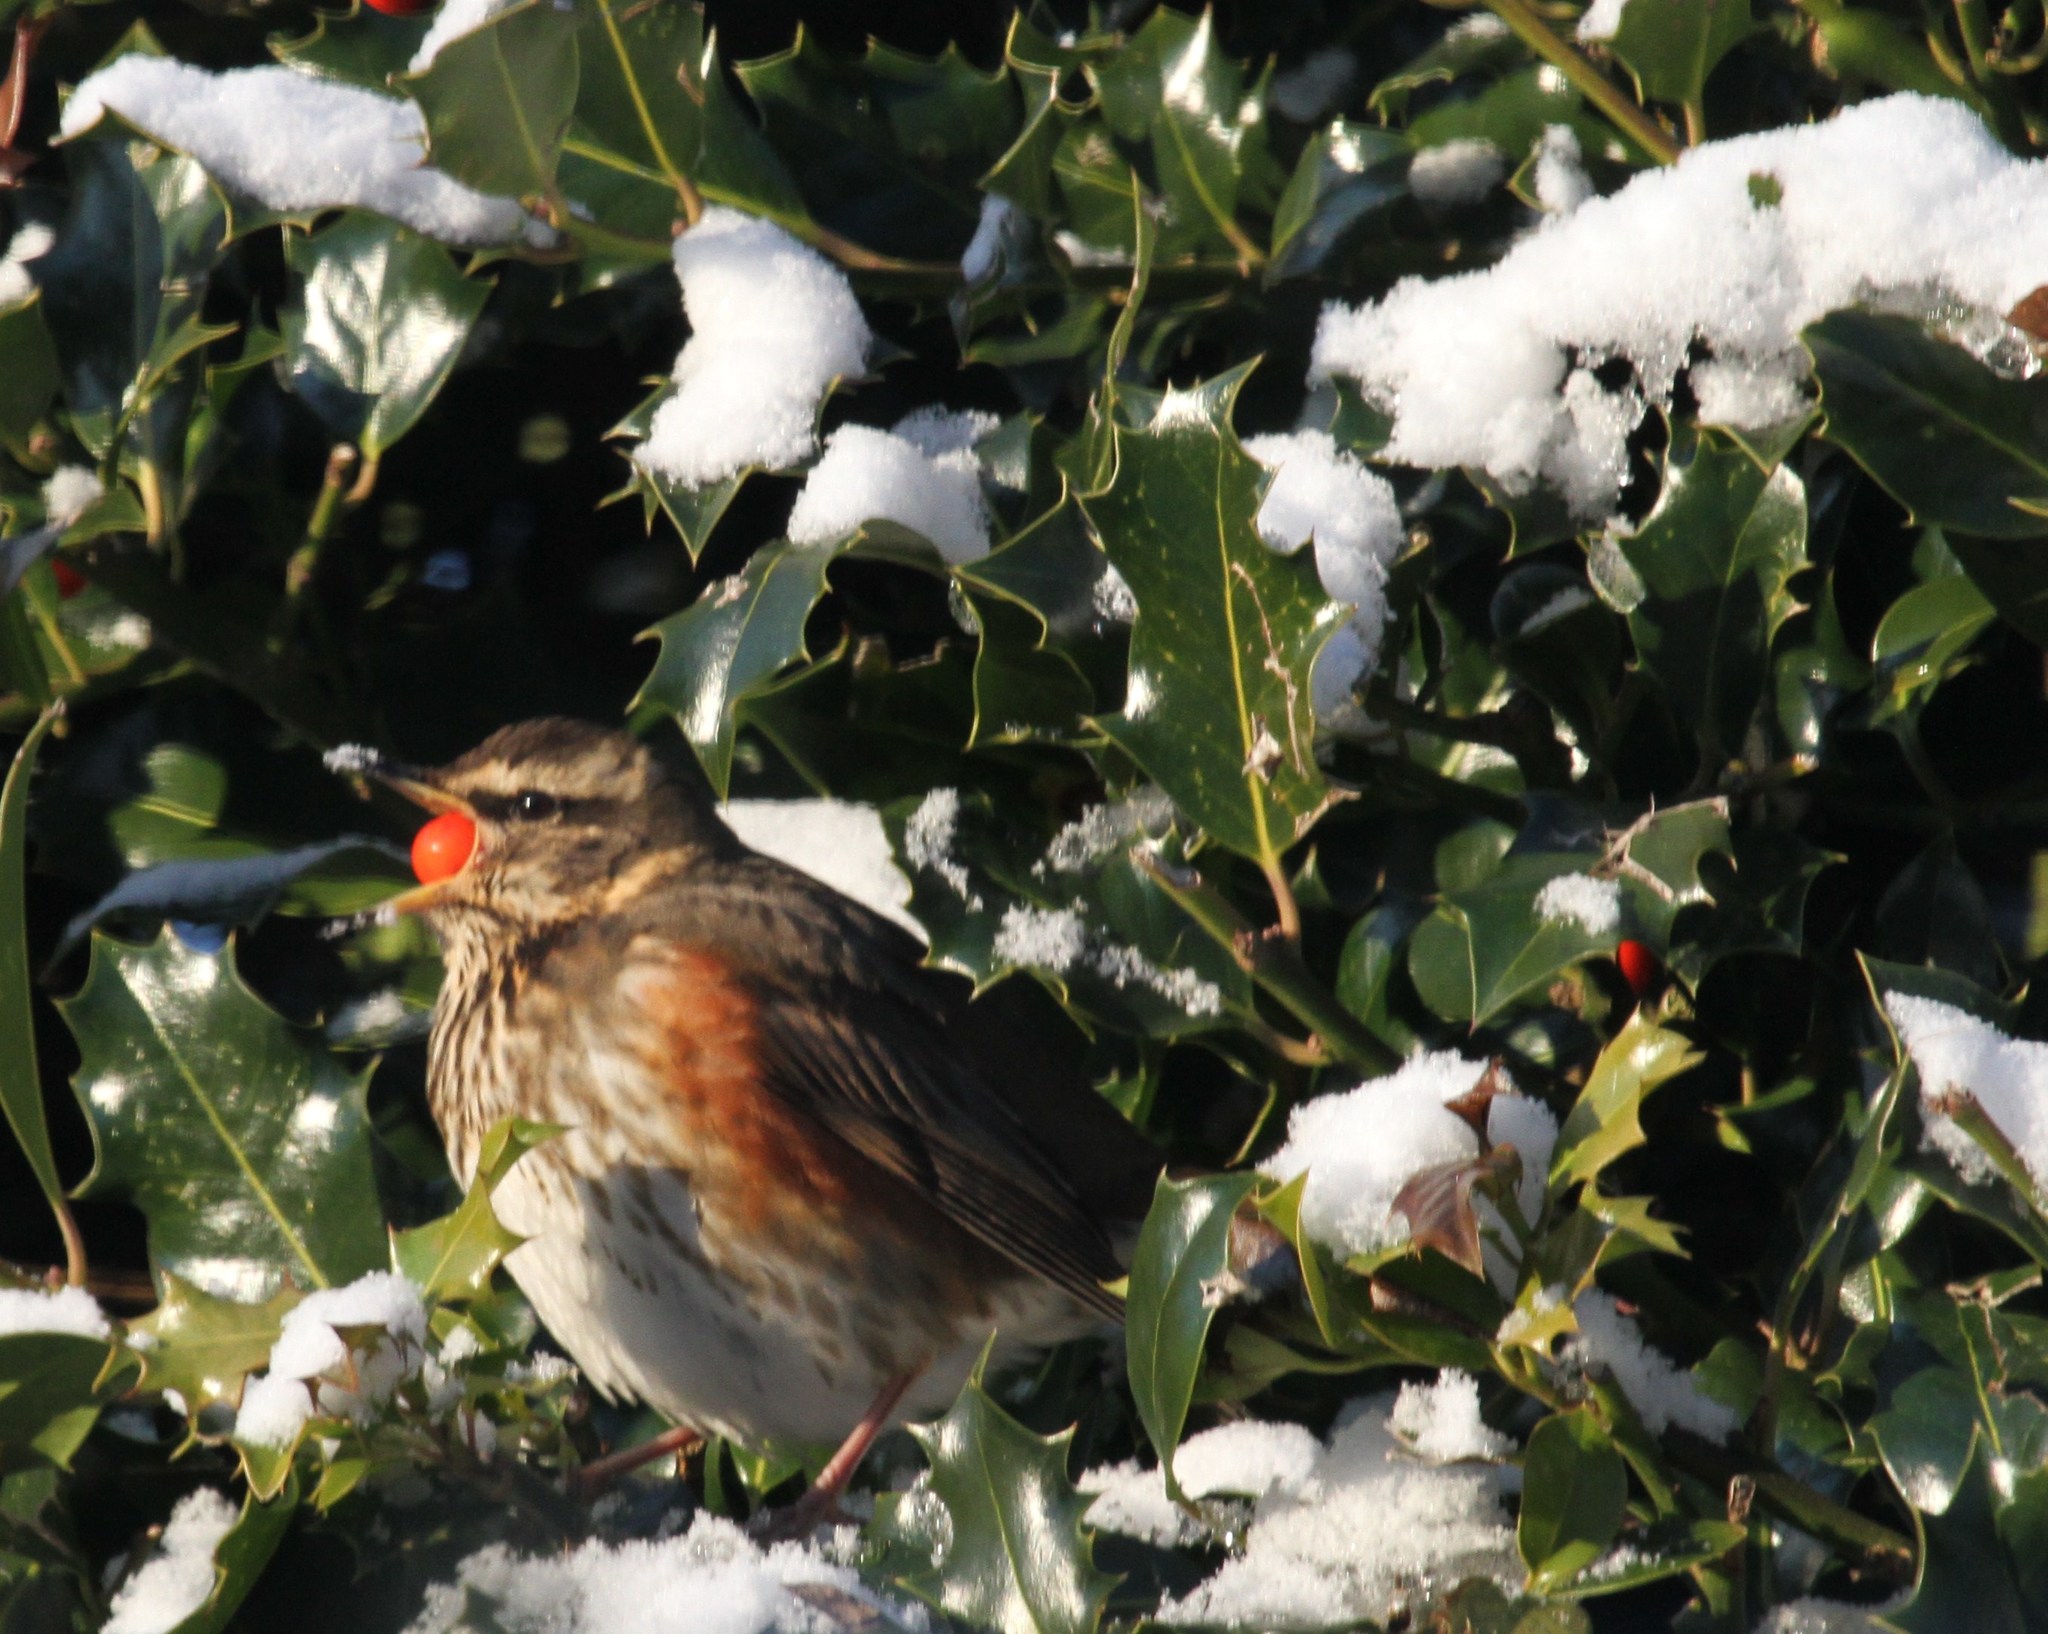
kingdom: Animalia
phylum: Chordata
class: Aves
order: Passeriformes
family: Turdidae
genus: Turdus
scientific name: Turdus iliacus
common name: Redwing
